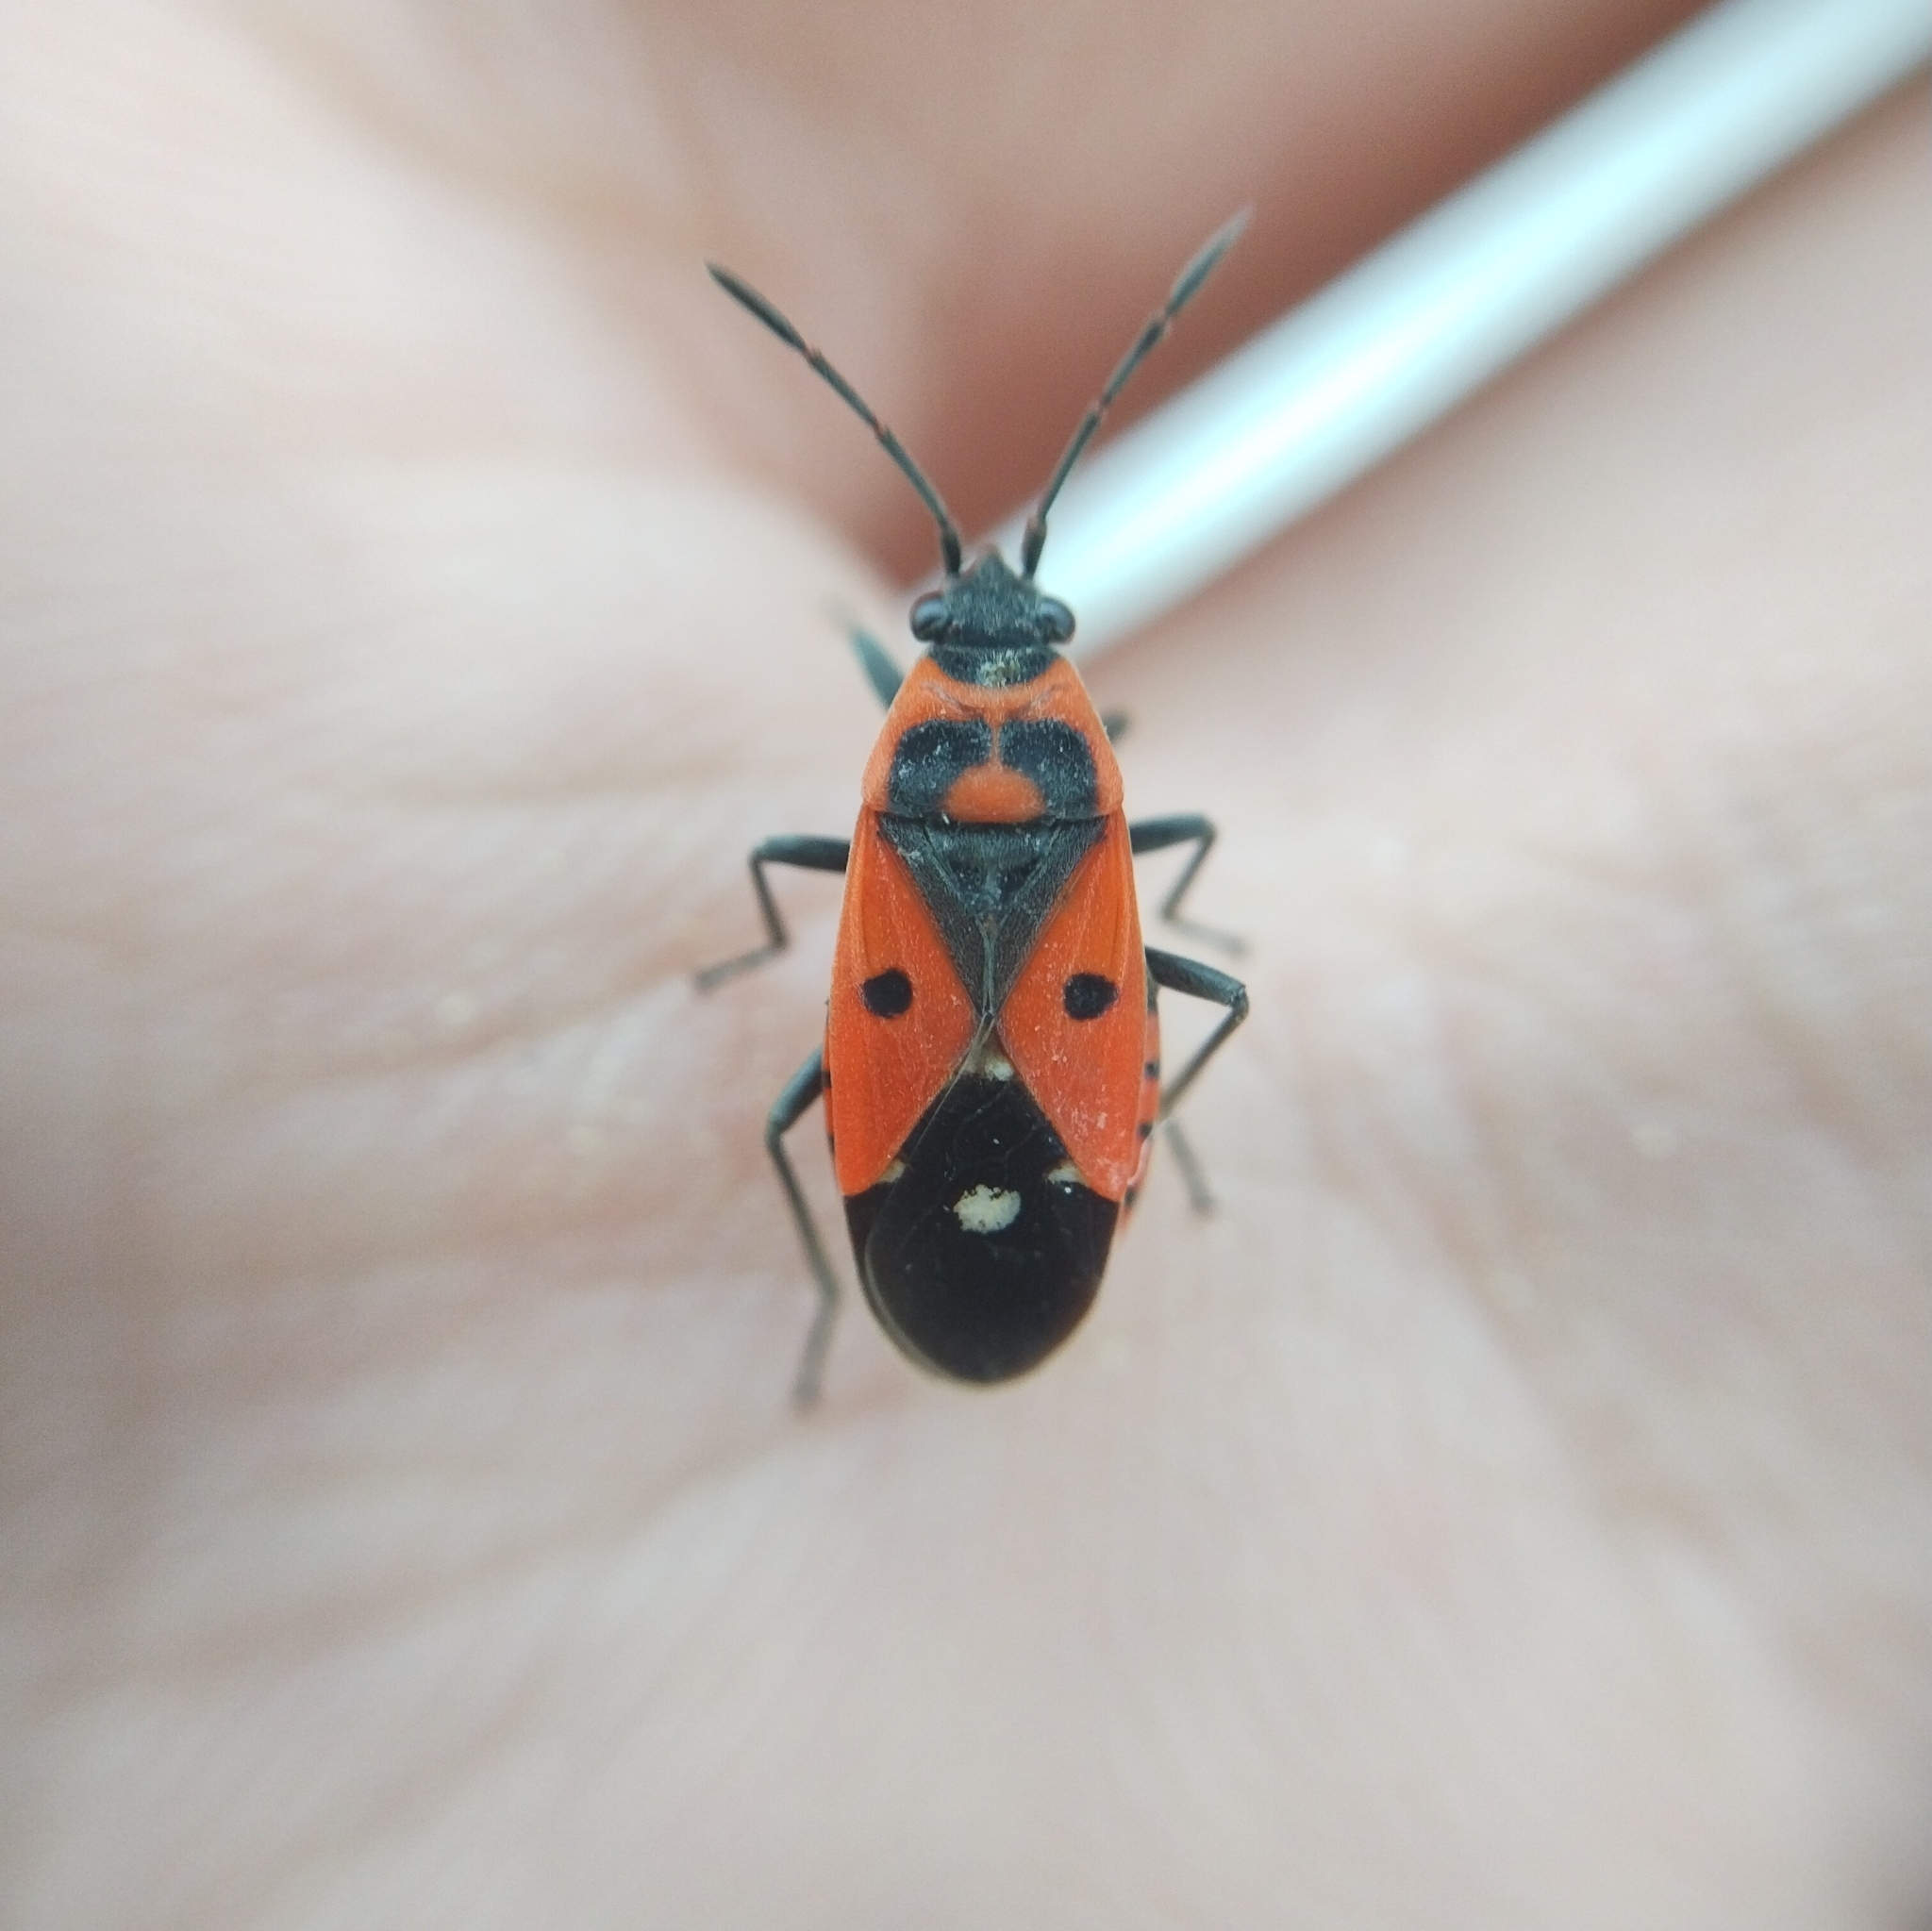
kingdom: Animalia
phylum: Arthropoda
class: Insecta
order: Hemiptera
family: Lygaeidae
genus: Melanocoryphus
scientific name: Melanocoryphus albomaculatus
